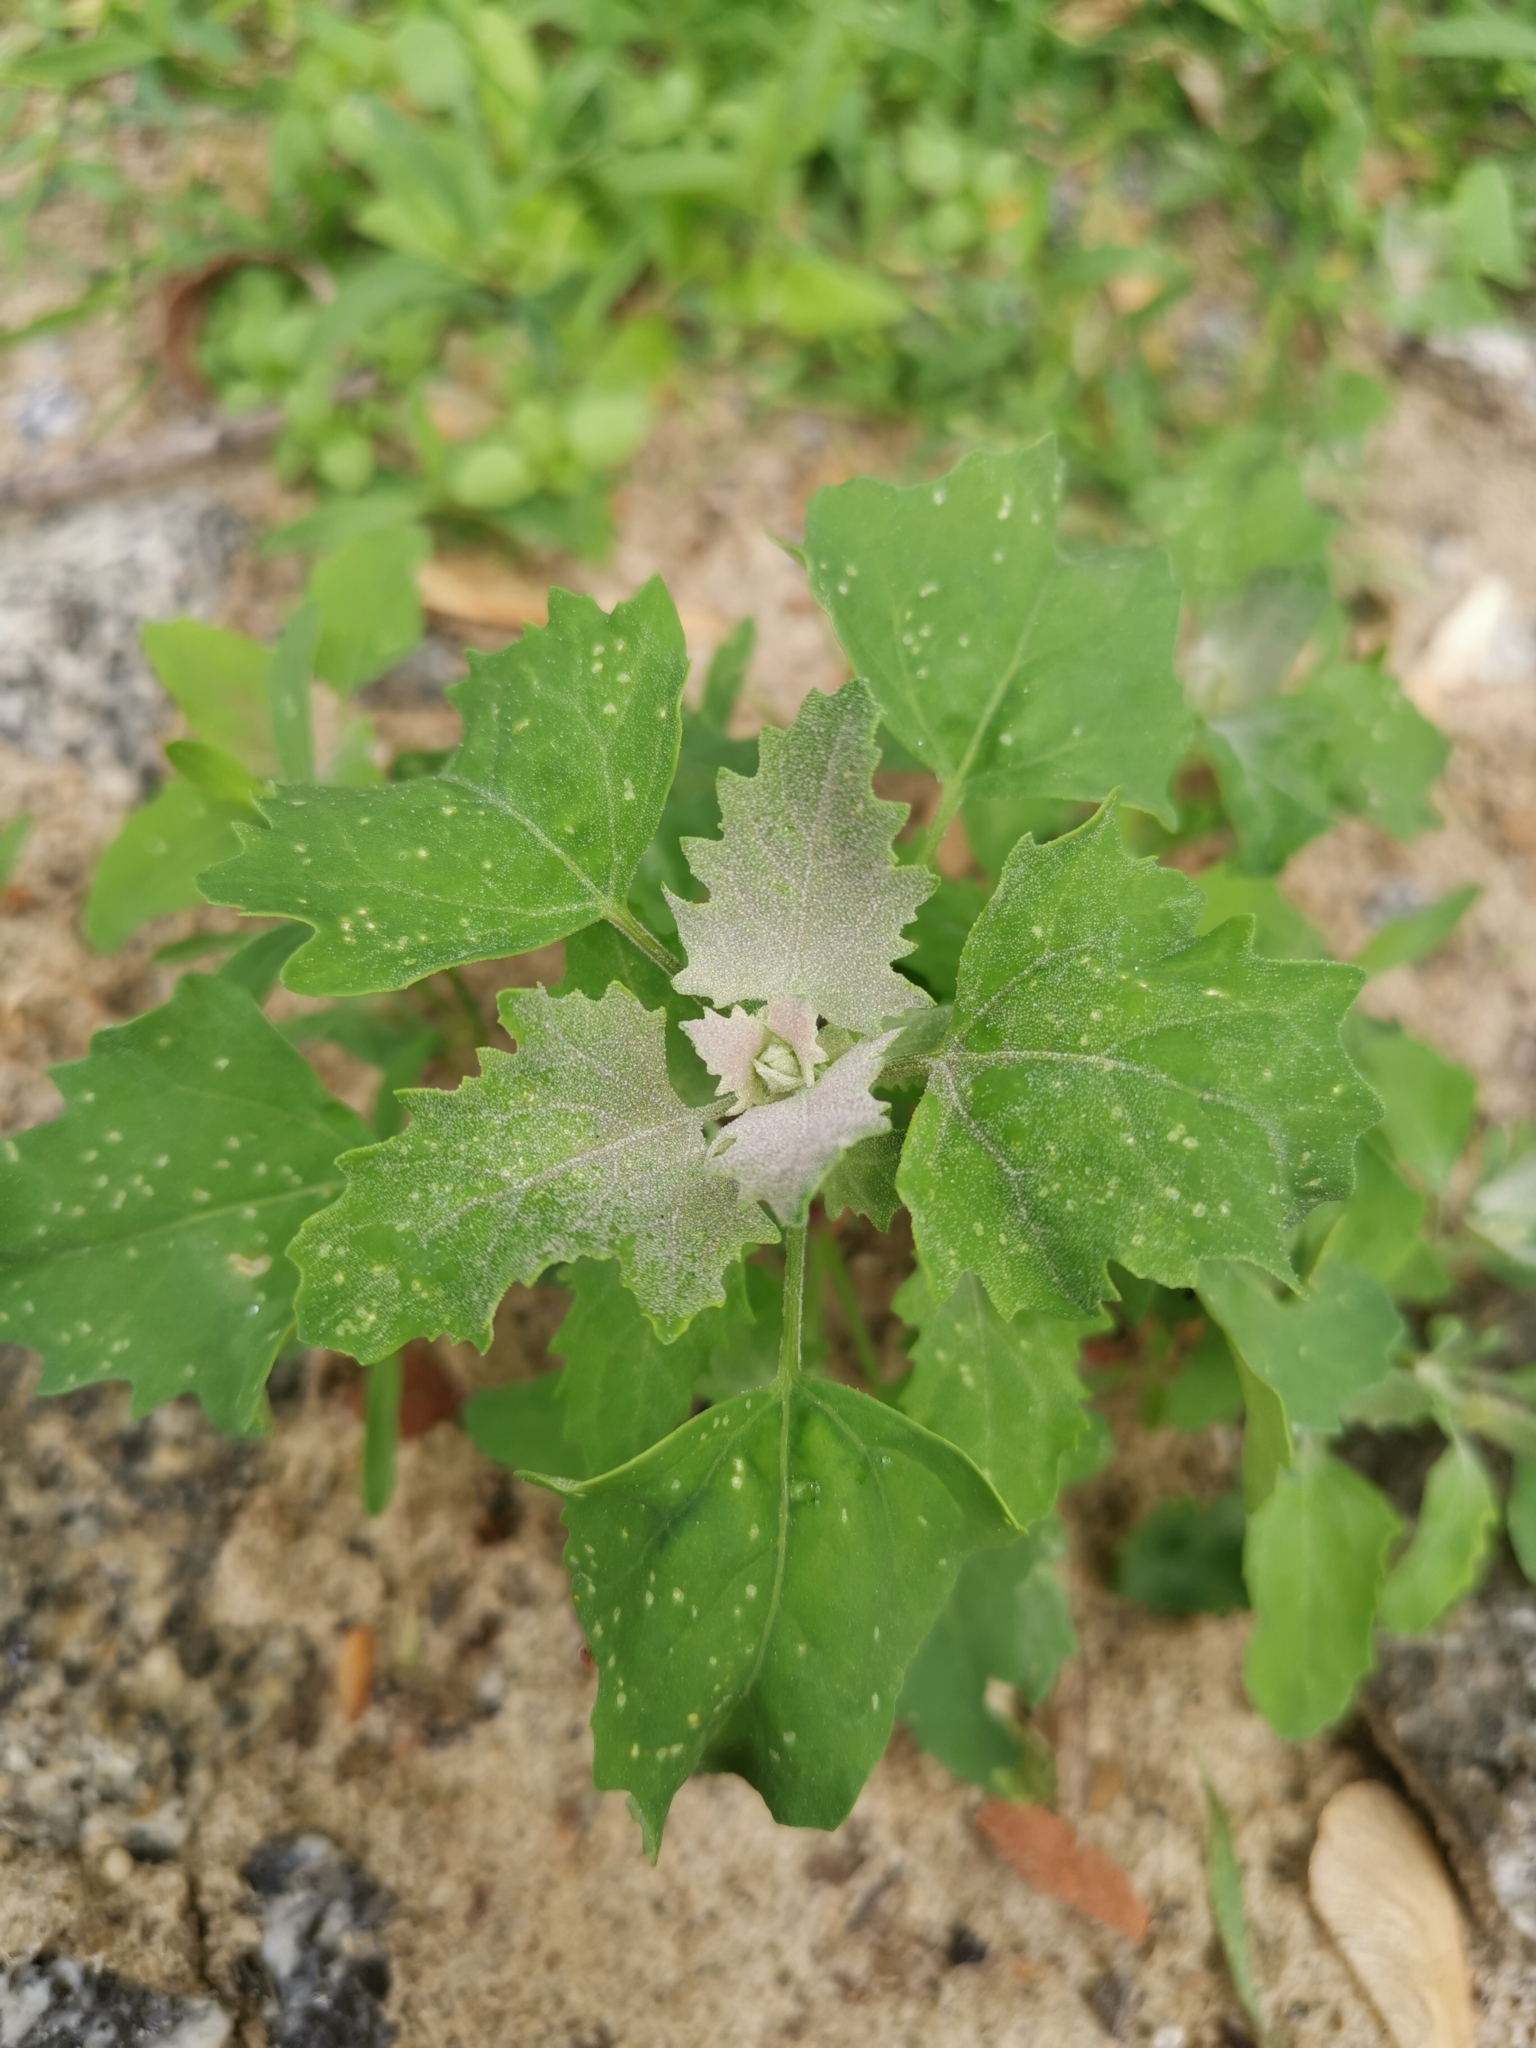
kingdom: Plantae
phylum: Tracheophyta
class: Magnoliopsida
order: Caryophyllales
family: Amaranthaceae
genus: Chenopodium
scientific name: Chenopodium album
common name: Fat-hen
